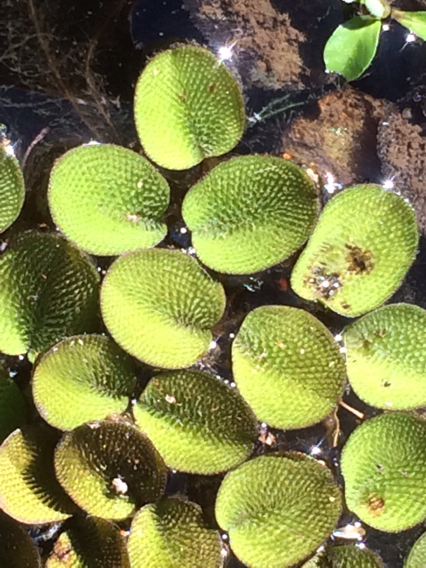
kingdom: Plantae
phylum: Tracheophyta
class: Polypodiopsida
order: Salviniales
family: Salviniaceae
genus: Salvinia
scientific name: Salvinia minima
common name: Water spangles
